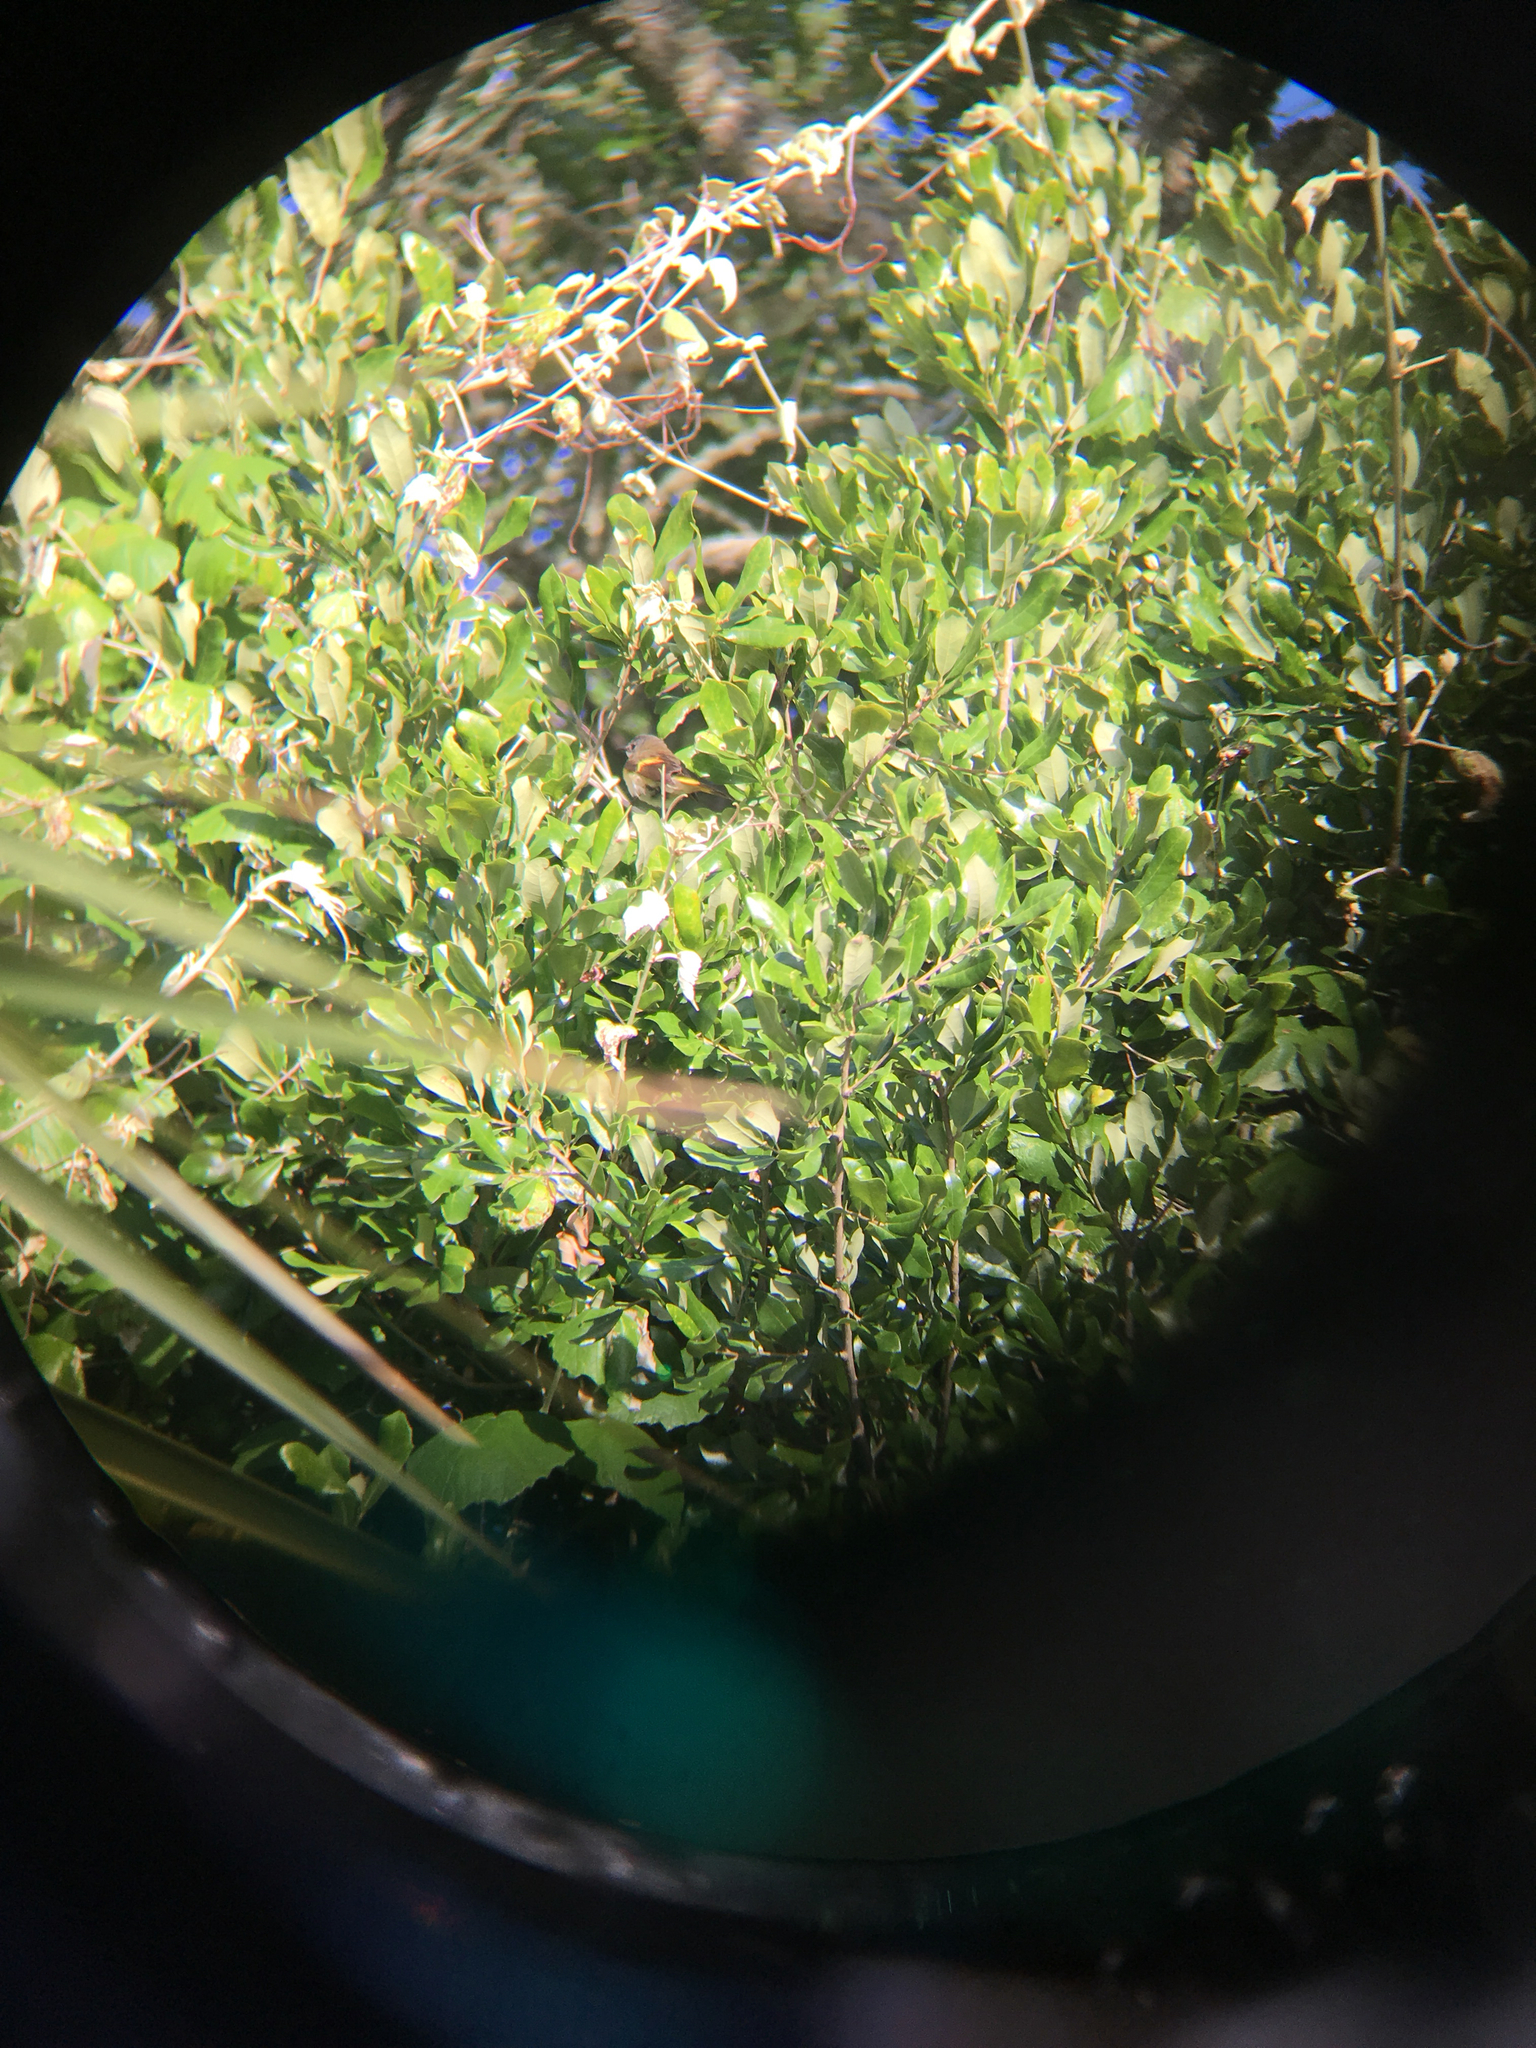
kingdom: Animalia
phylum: Chordata
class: Aves
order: Passeriformes
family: Parulidae
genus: Setophaga
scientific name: Setophaga ruticilla
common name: American redstart
